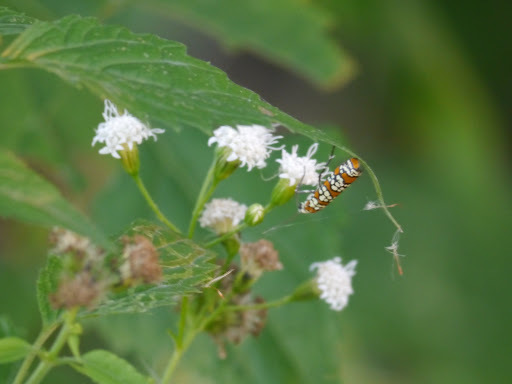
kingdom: Animalia
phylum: Arthropoda
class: Insecta
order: Lepidoptera
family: Attevidae
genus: Atteva
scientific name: Atteva punctella
